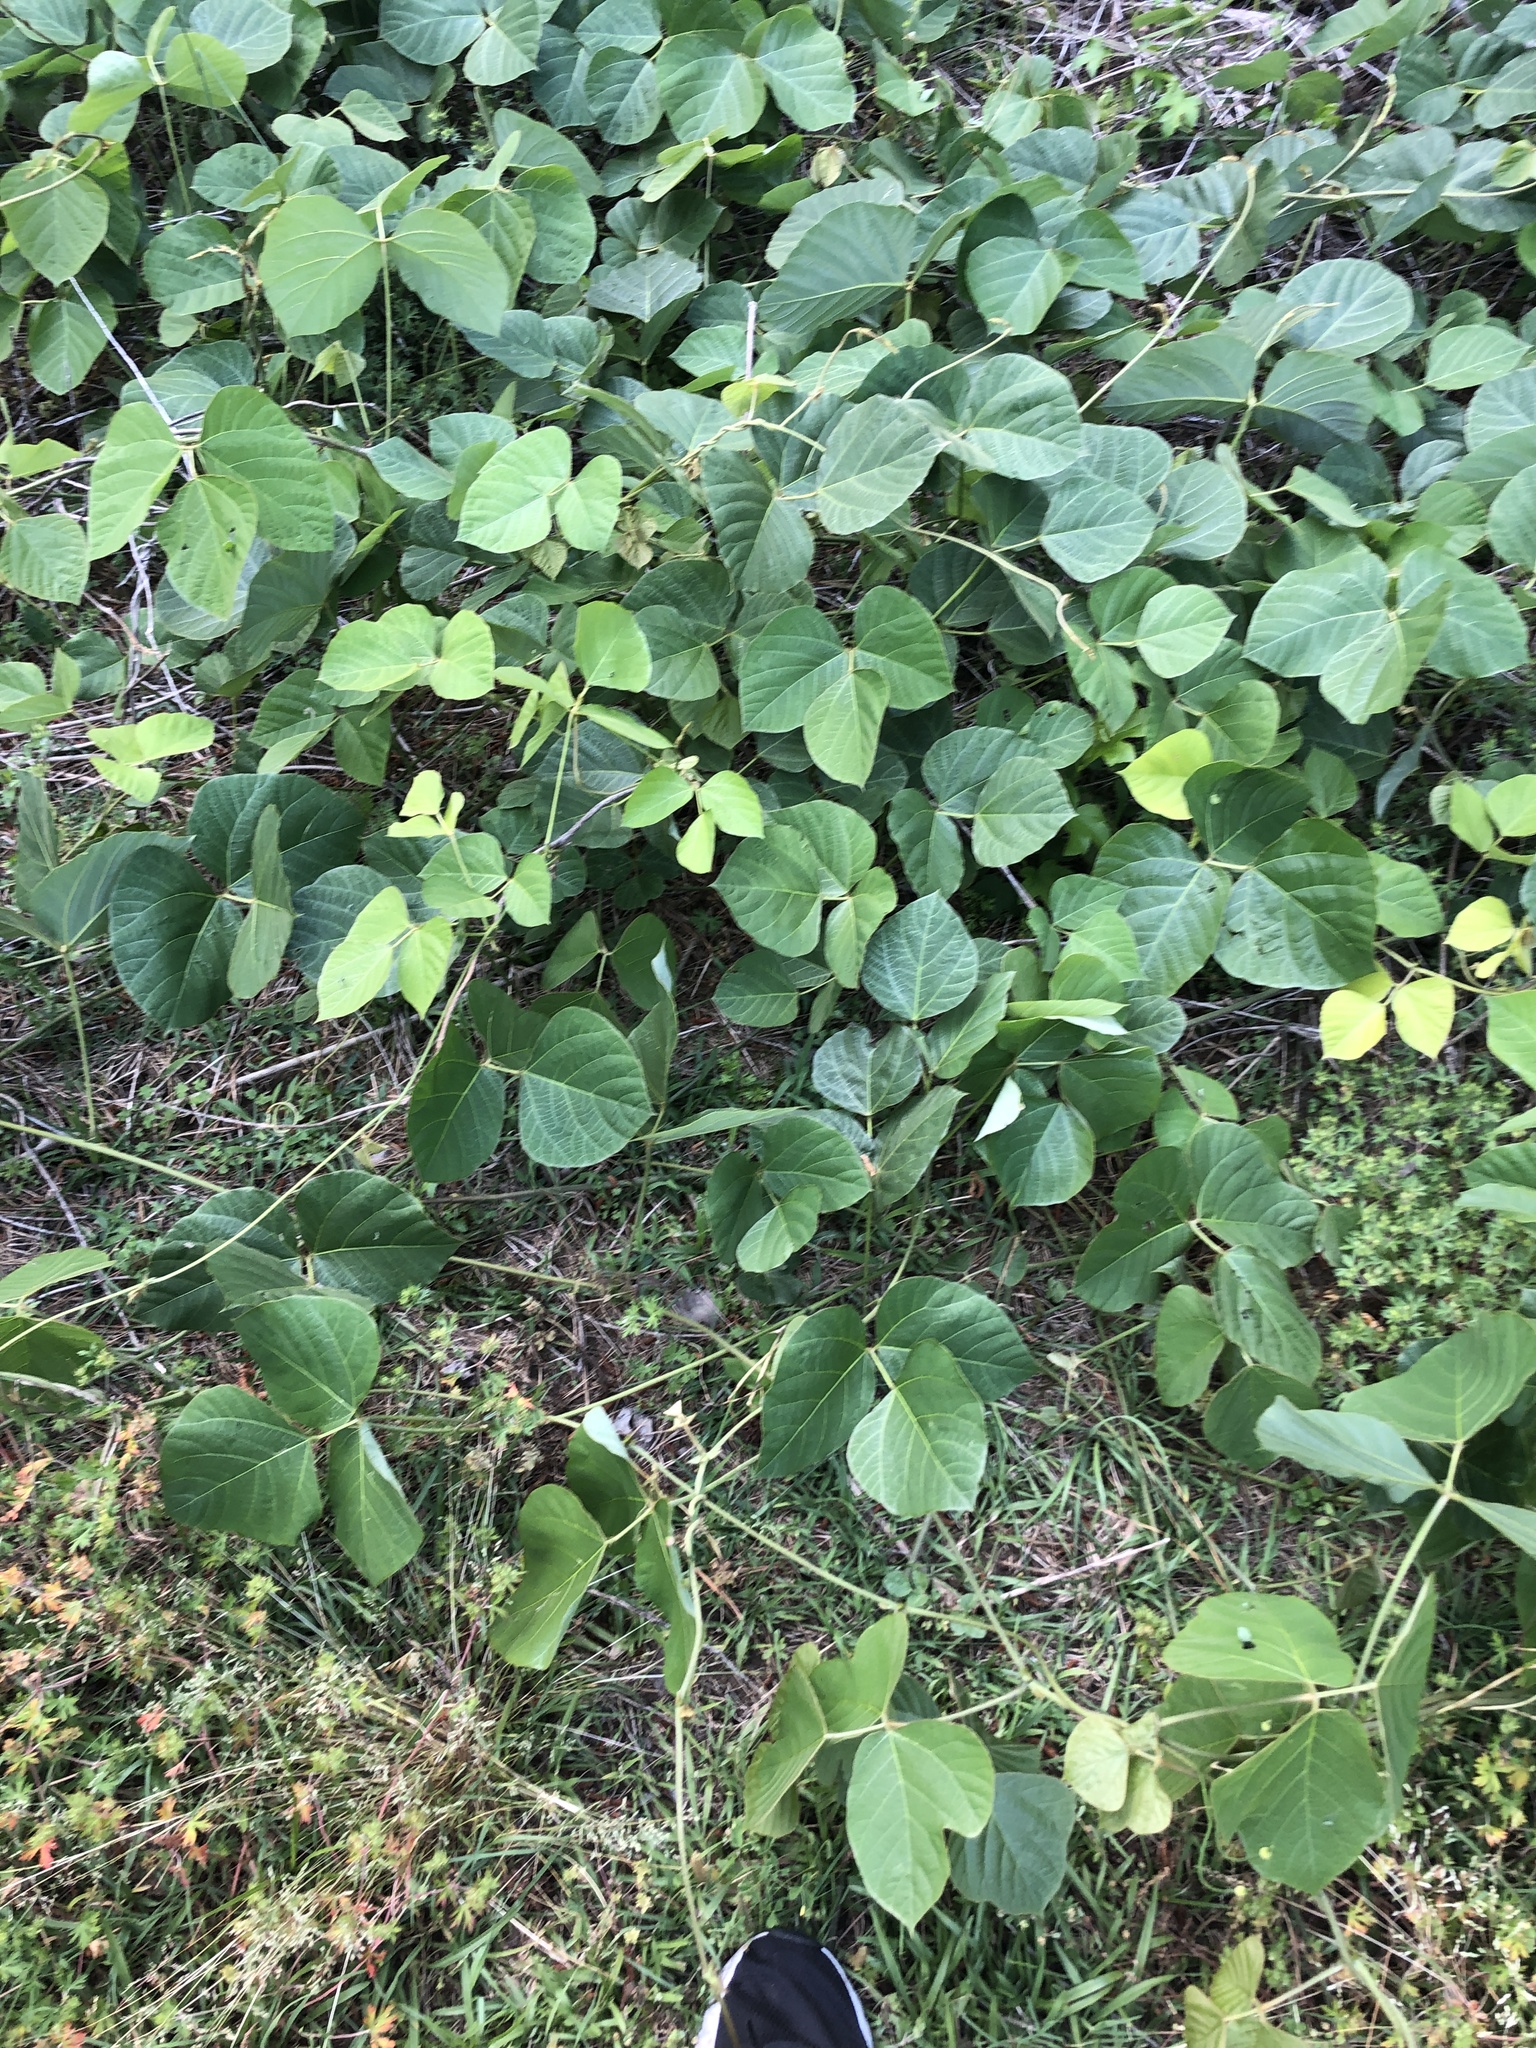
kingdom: Plantae
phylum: Tracheophyta
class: Magnoliopsida
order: Fabales
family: Fabaceae
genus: Pueraria
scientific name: Pueraria montana
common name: Kudzu
